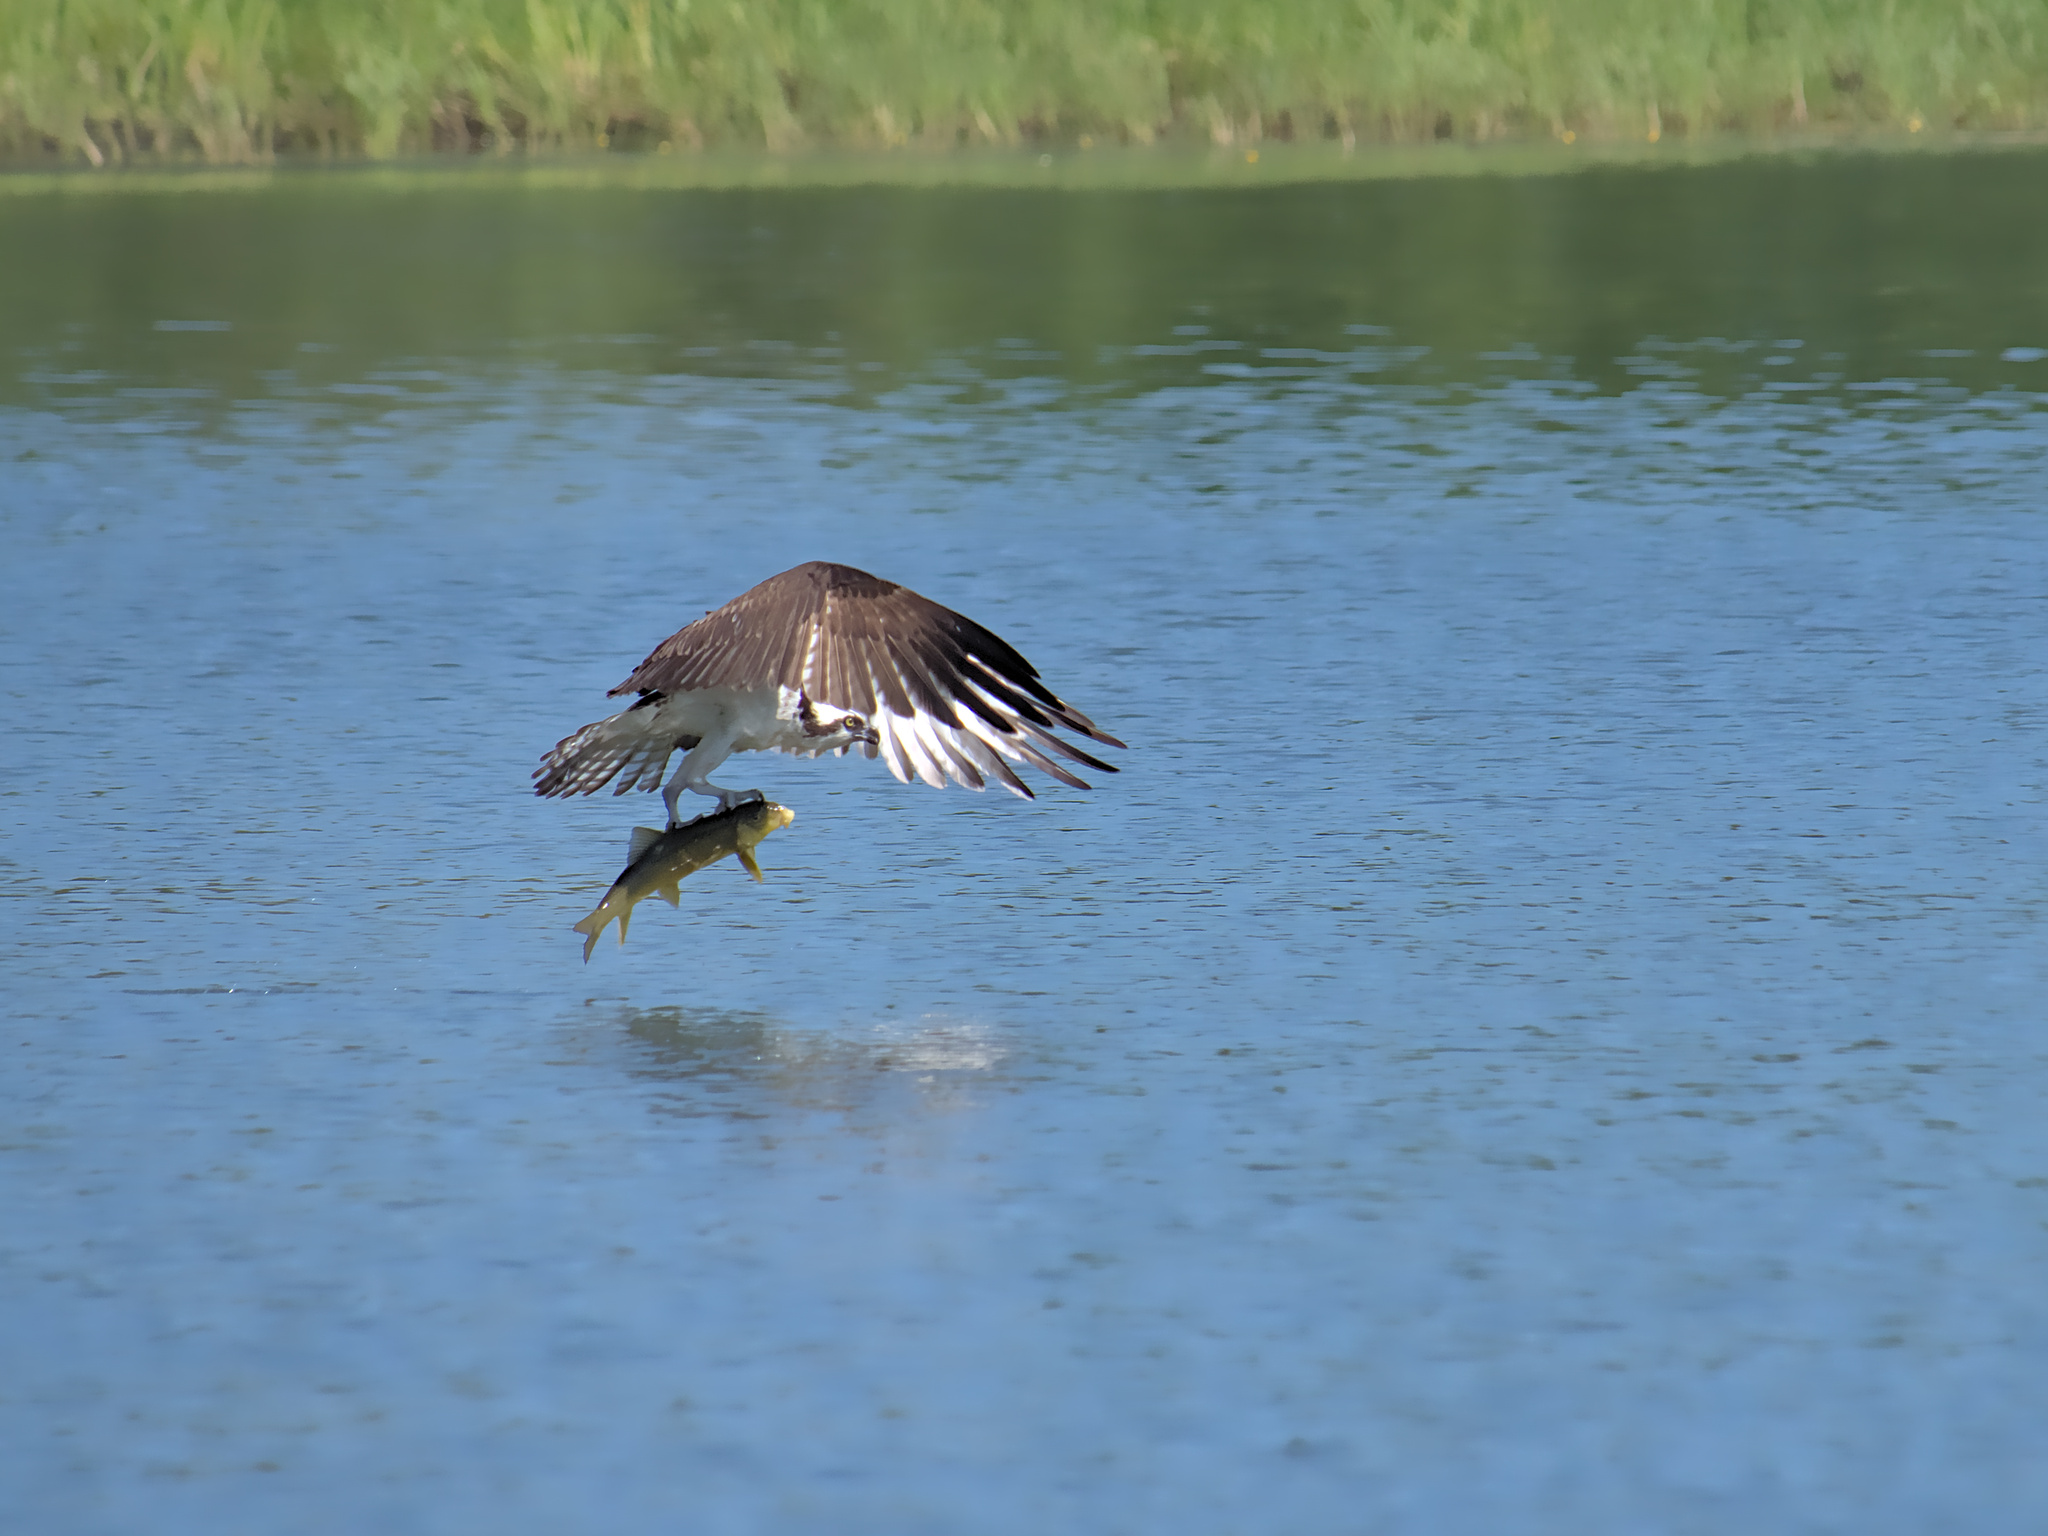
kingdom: Animalia
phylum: Chordata
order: Cypriniformes
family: Catostomidae
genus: Catostomus
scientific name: Catostomus commersonii
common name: White sucker
